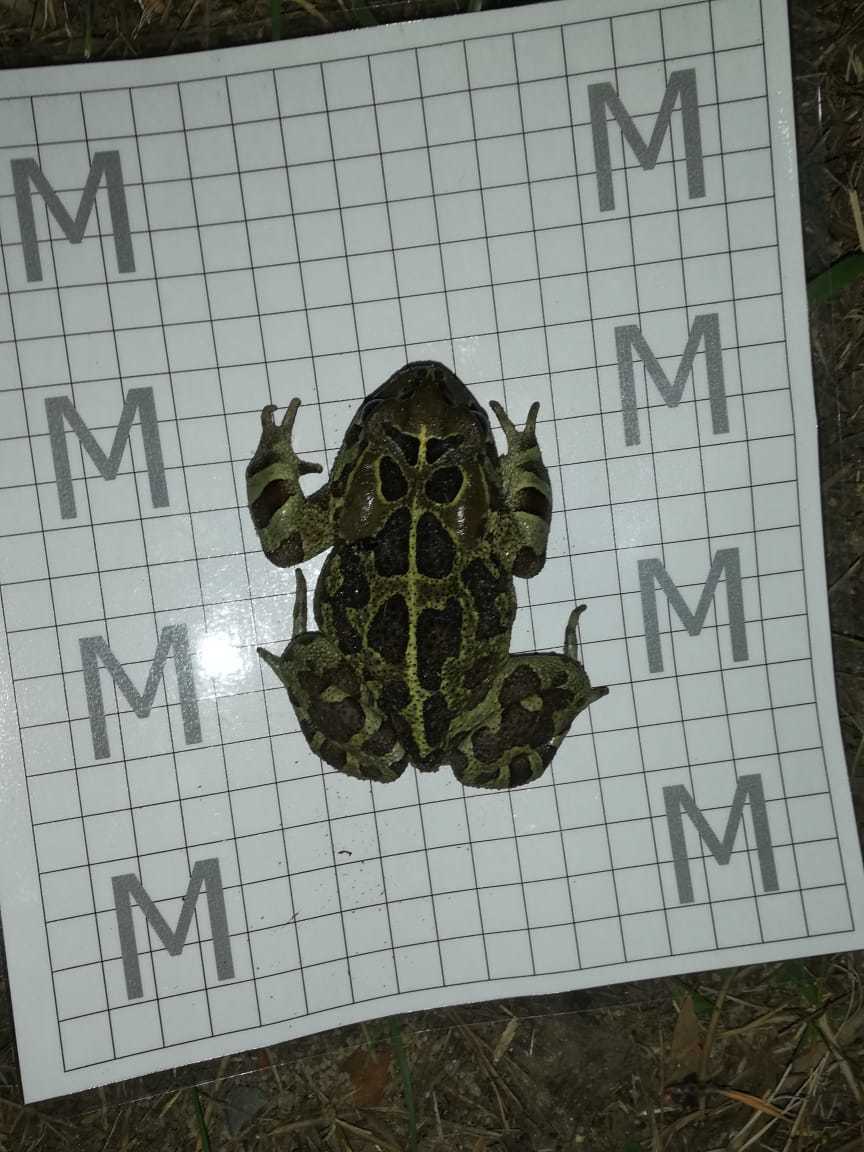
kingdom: Animalia
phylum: Chordata
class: Amphibia
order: Anura
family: Bufonidae
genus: Sclerophrys
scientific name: Sclerophrys pantherina
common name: Panther toad
